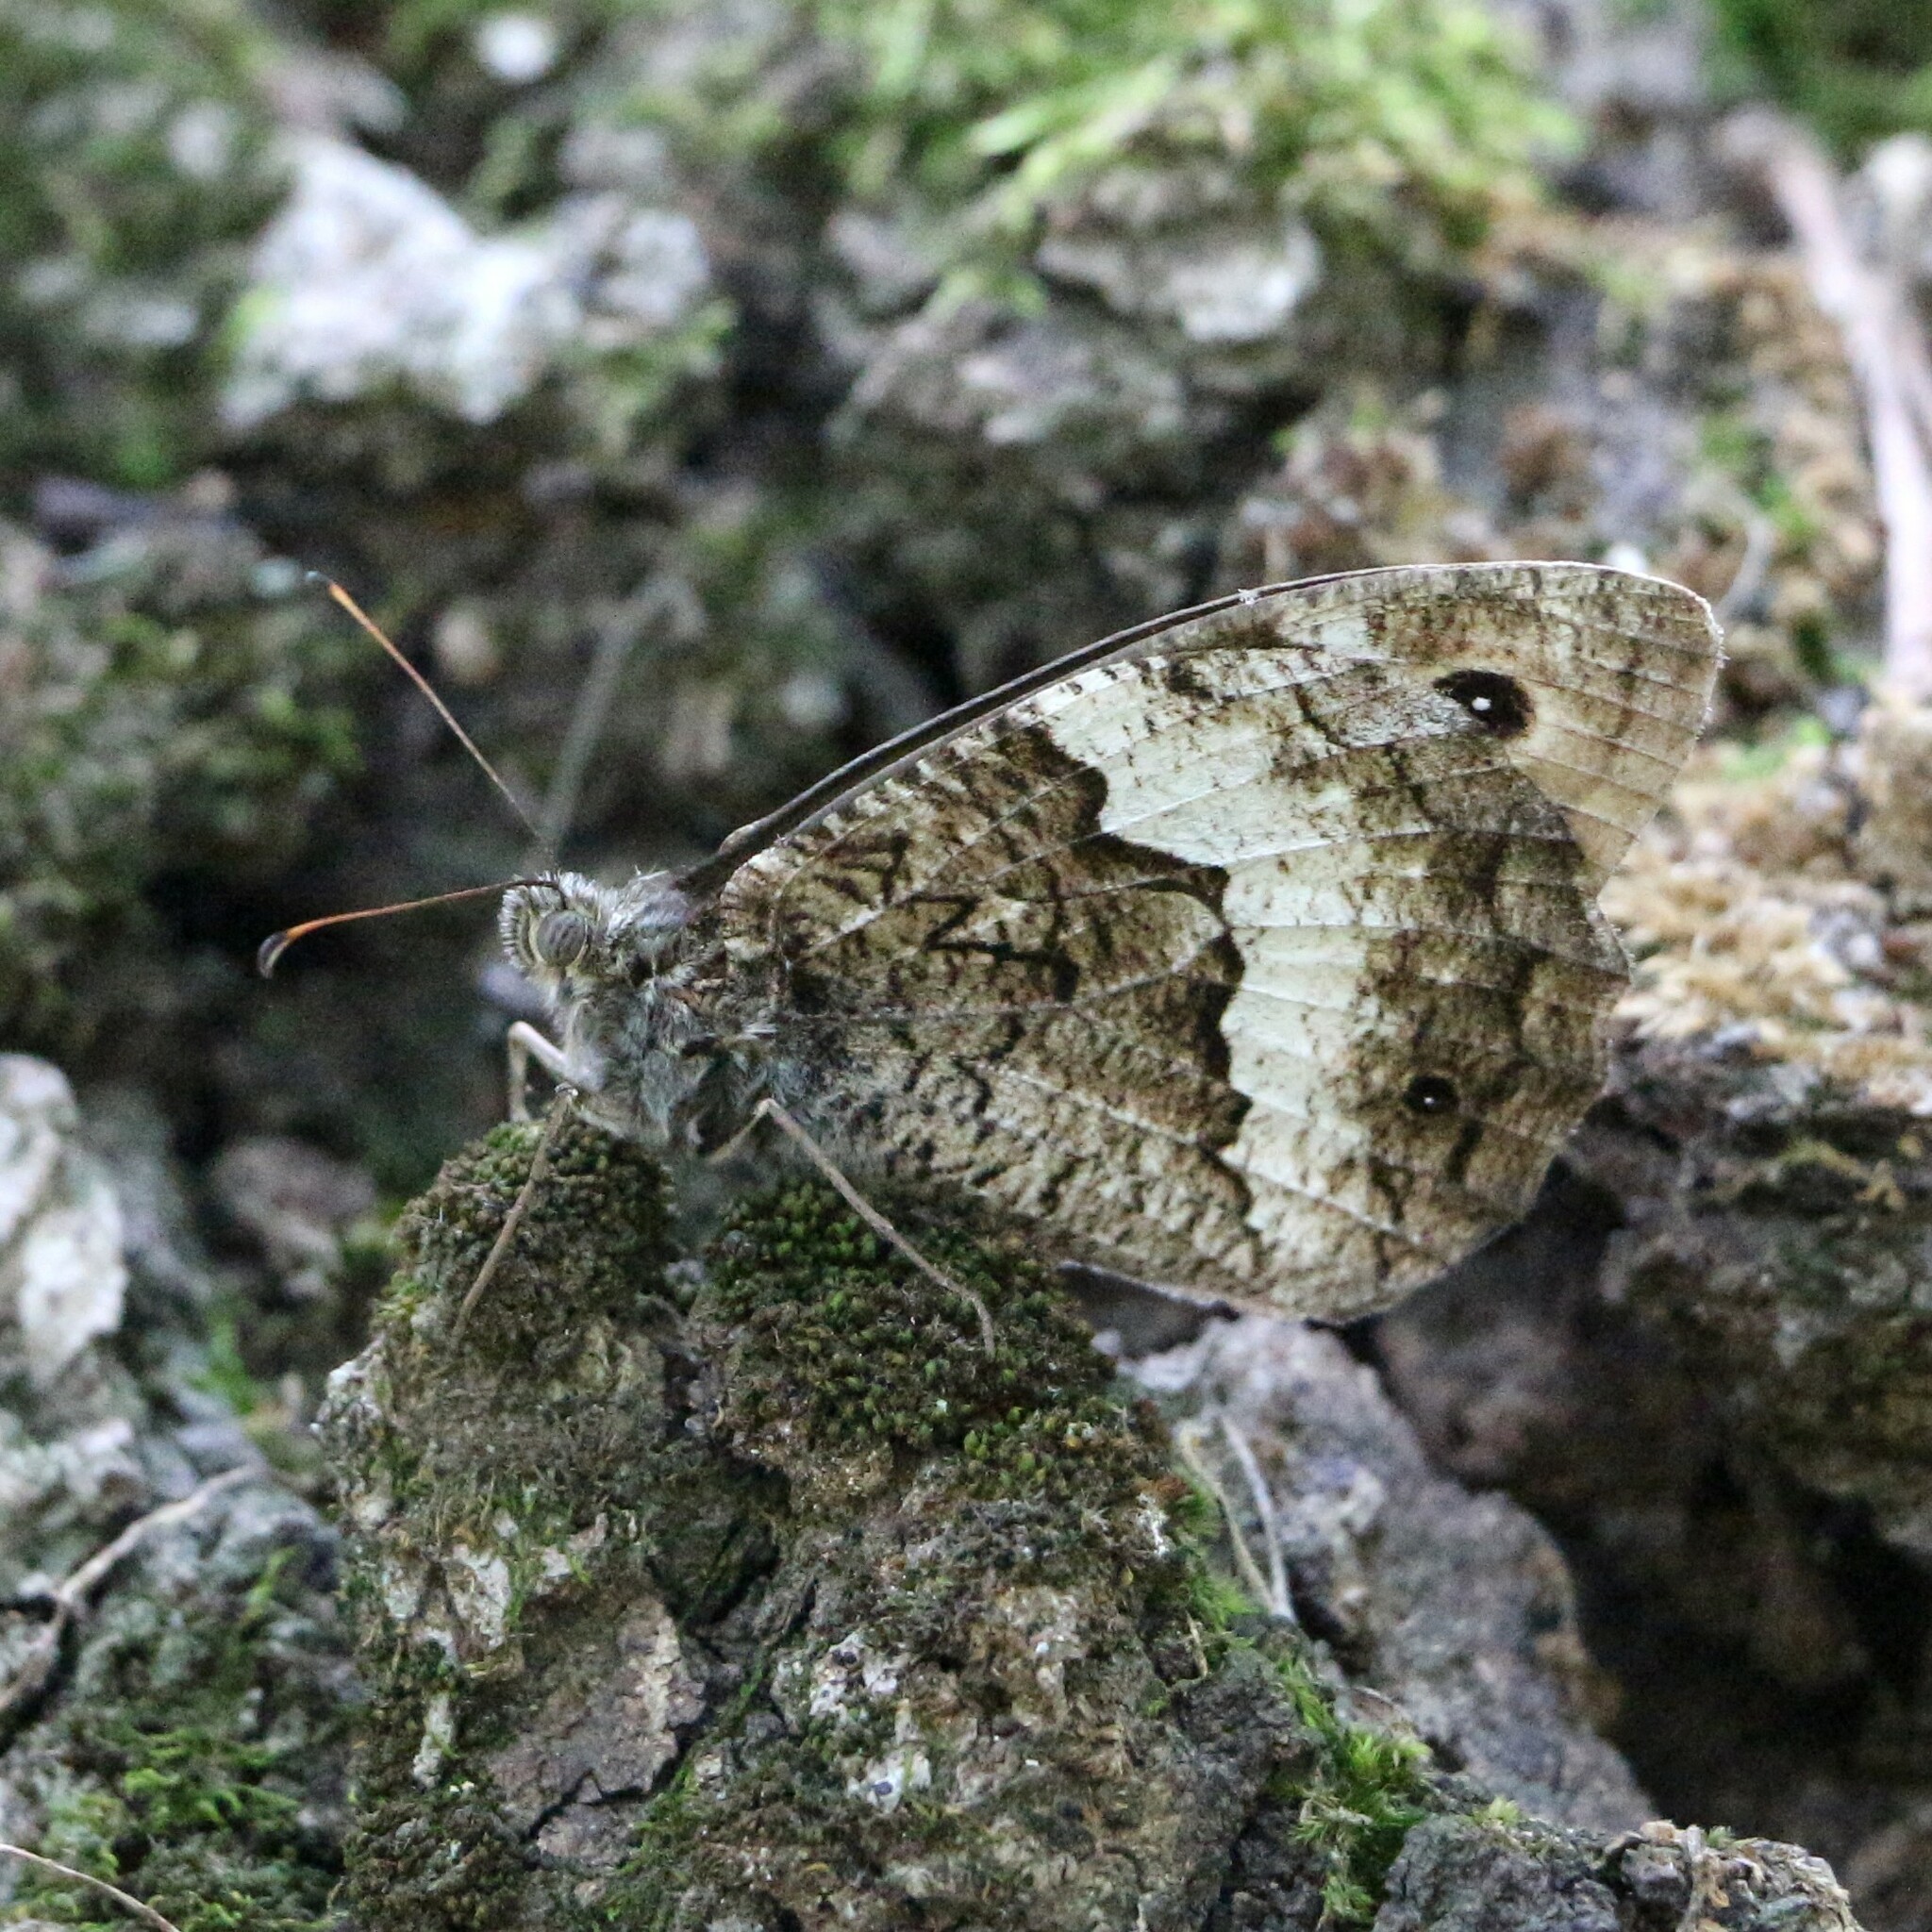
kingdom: Animalia
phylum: Arthropoda
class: Insecta
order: Lepidoptera
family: Nymphalidae
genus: Hipparchia
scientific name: Hipparchia fagi
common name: Woodland grayling
